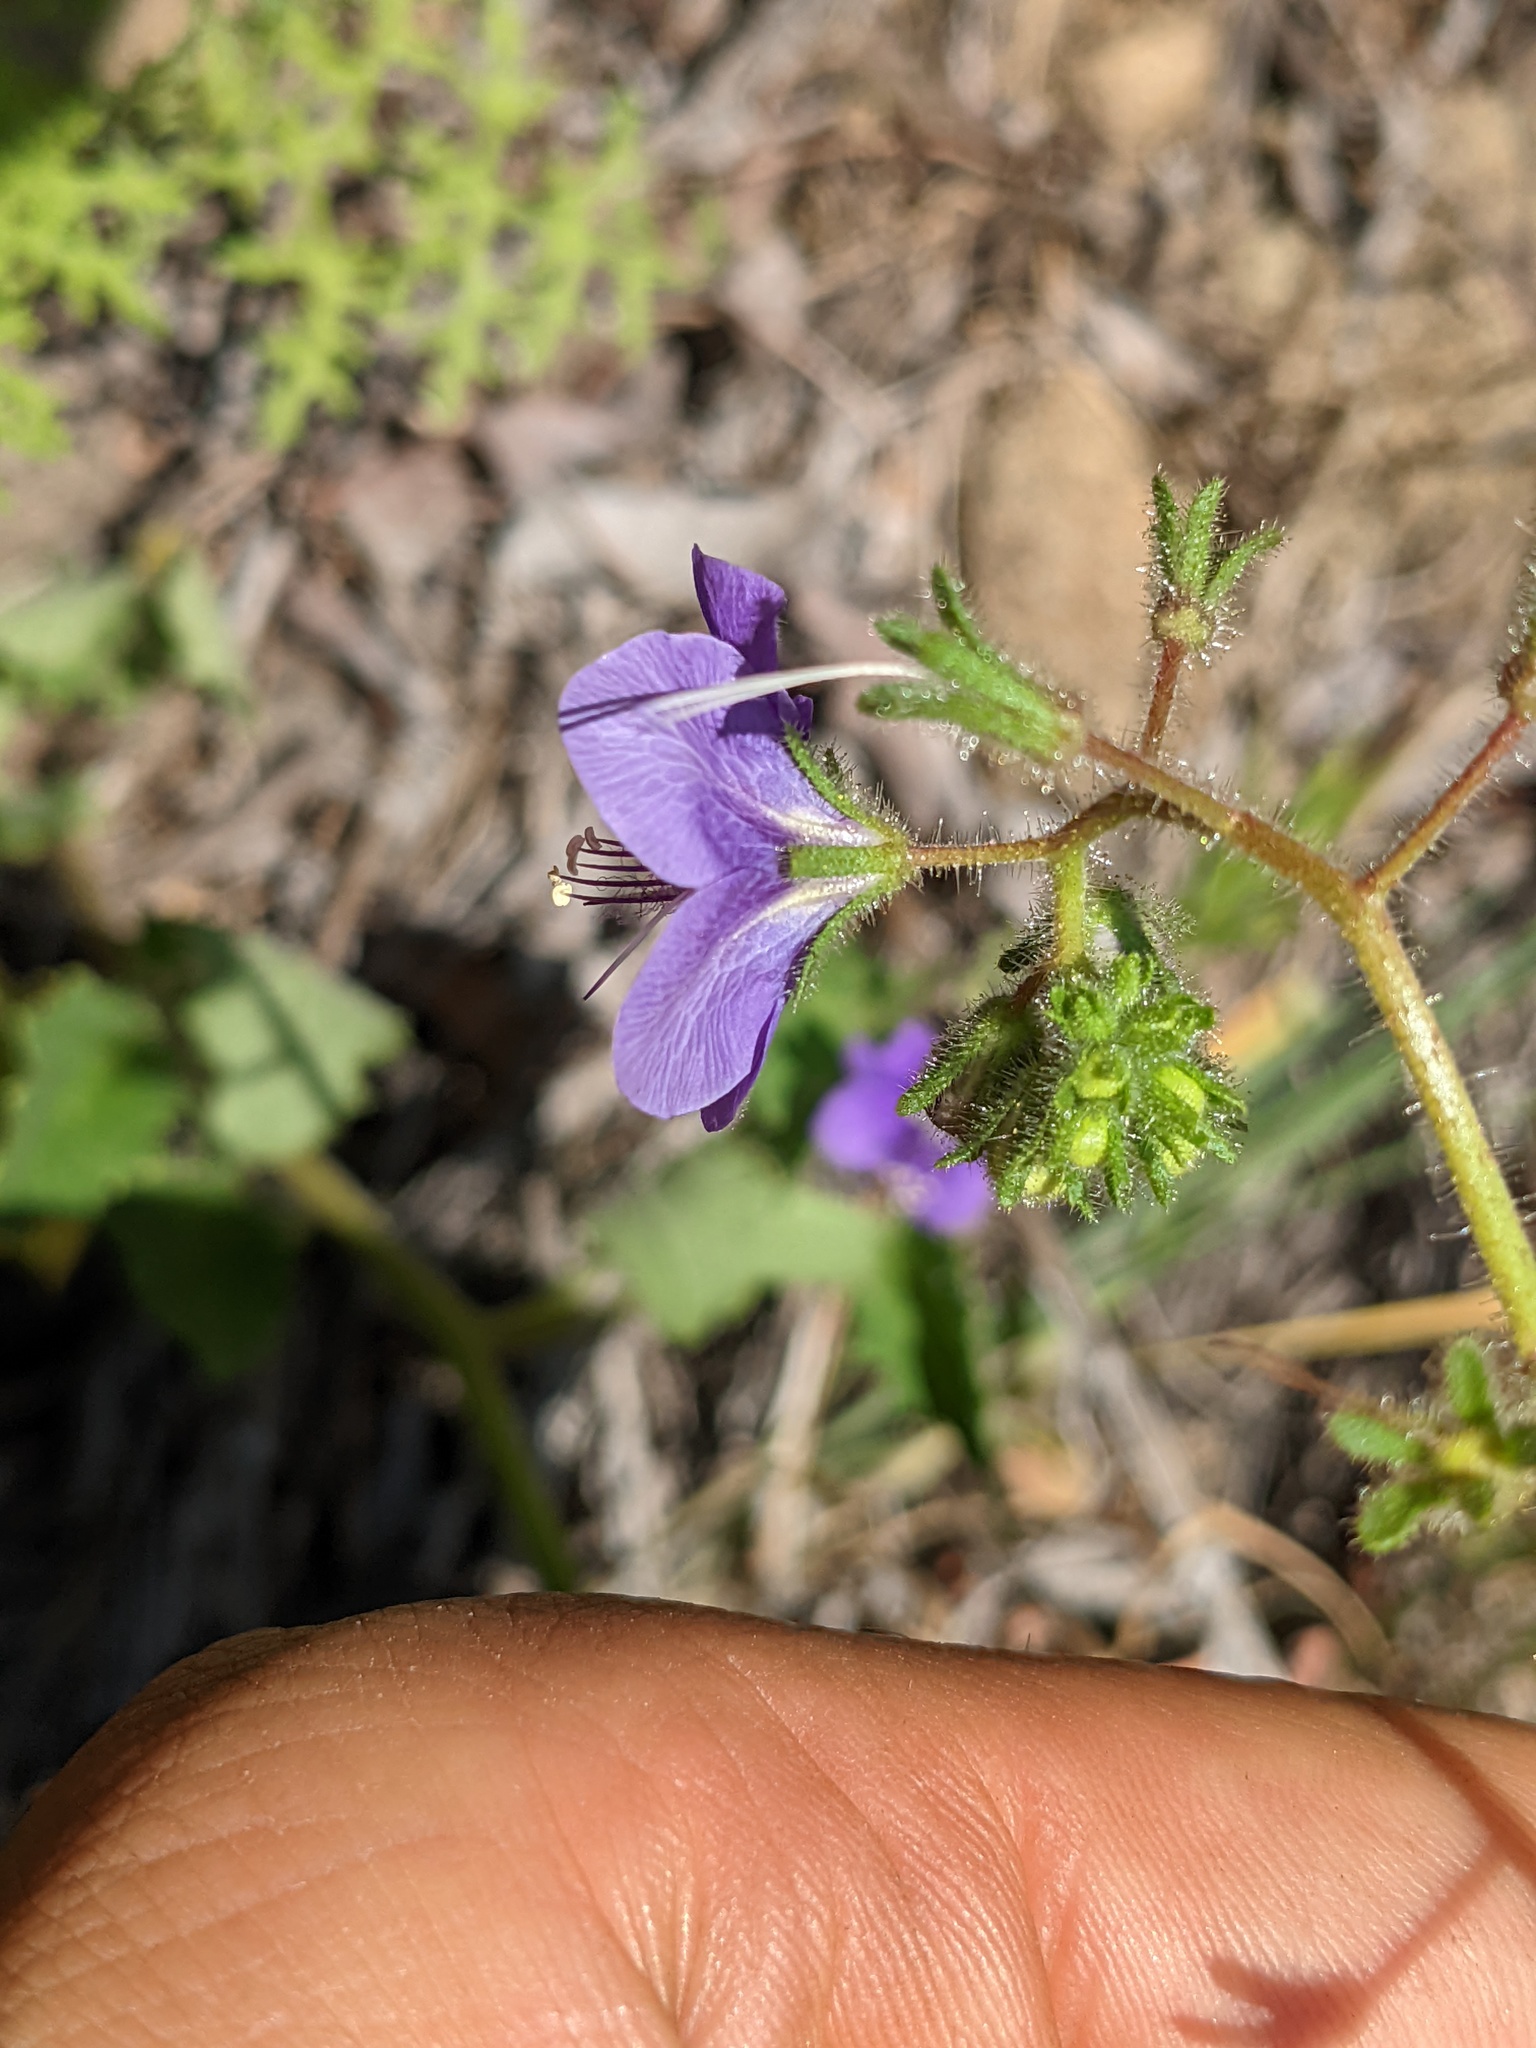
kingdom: Plantae
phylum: Tracheophyta
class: Magnoliopsida
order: Boraginales
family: Hydrophyllaceae
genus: Phacelia
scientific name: Phacelia parryi
